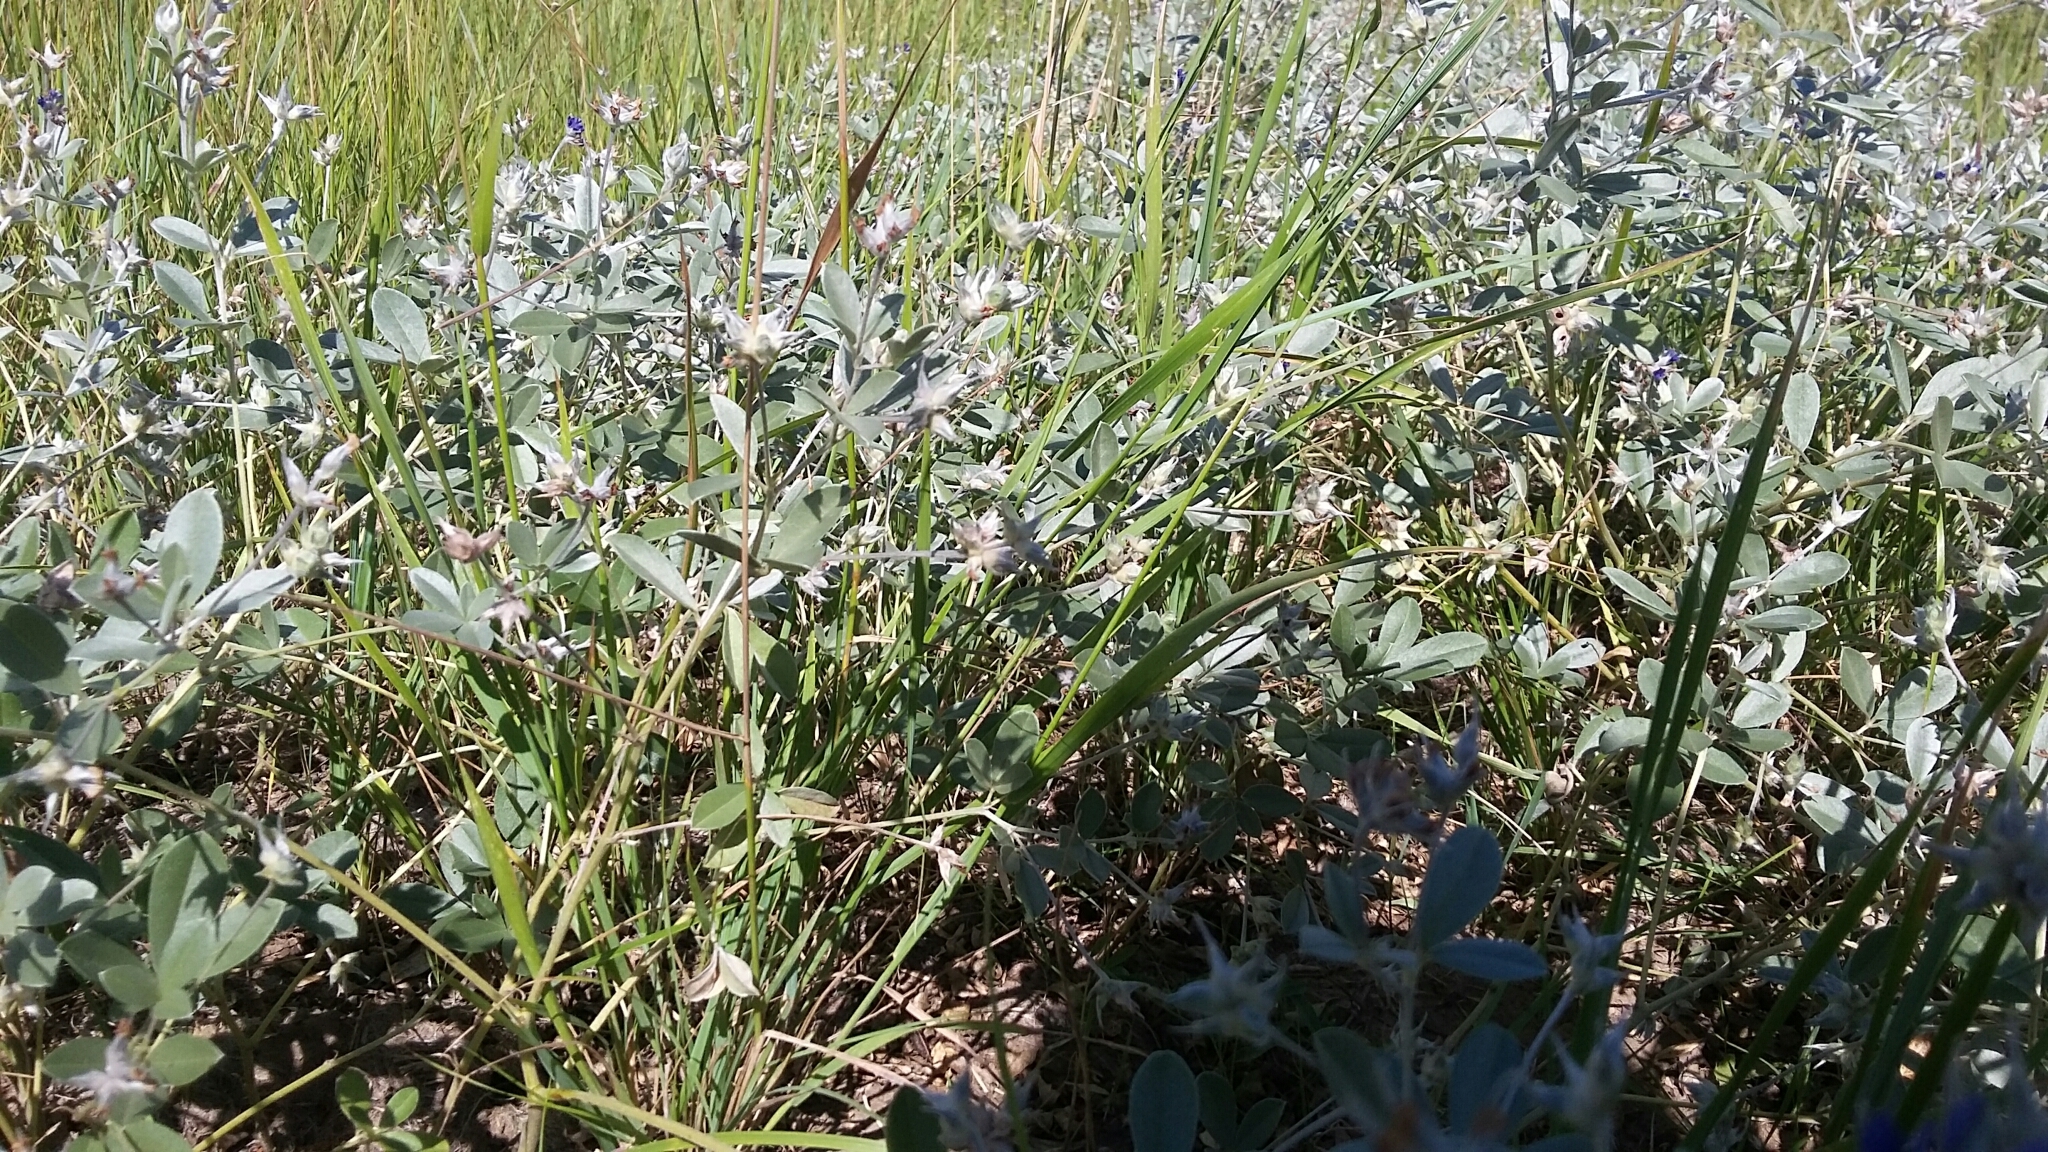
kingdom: Plantae
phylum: Tracheophyta
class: Magnoliopsida
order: Fabales
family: Fabaceae
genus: Pediomelum
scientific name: Pediomelum argophyllum
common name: Silver-leaved indian breadroot
